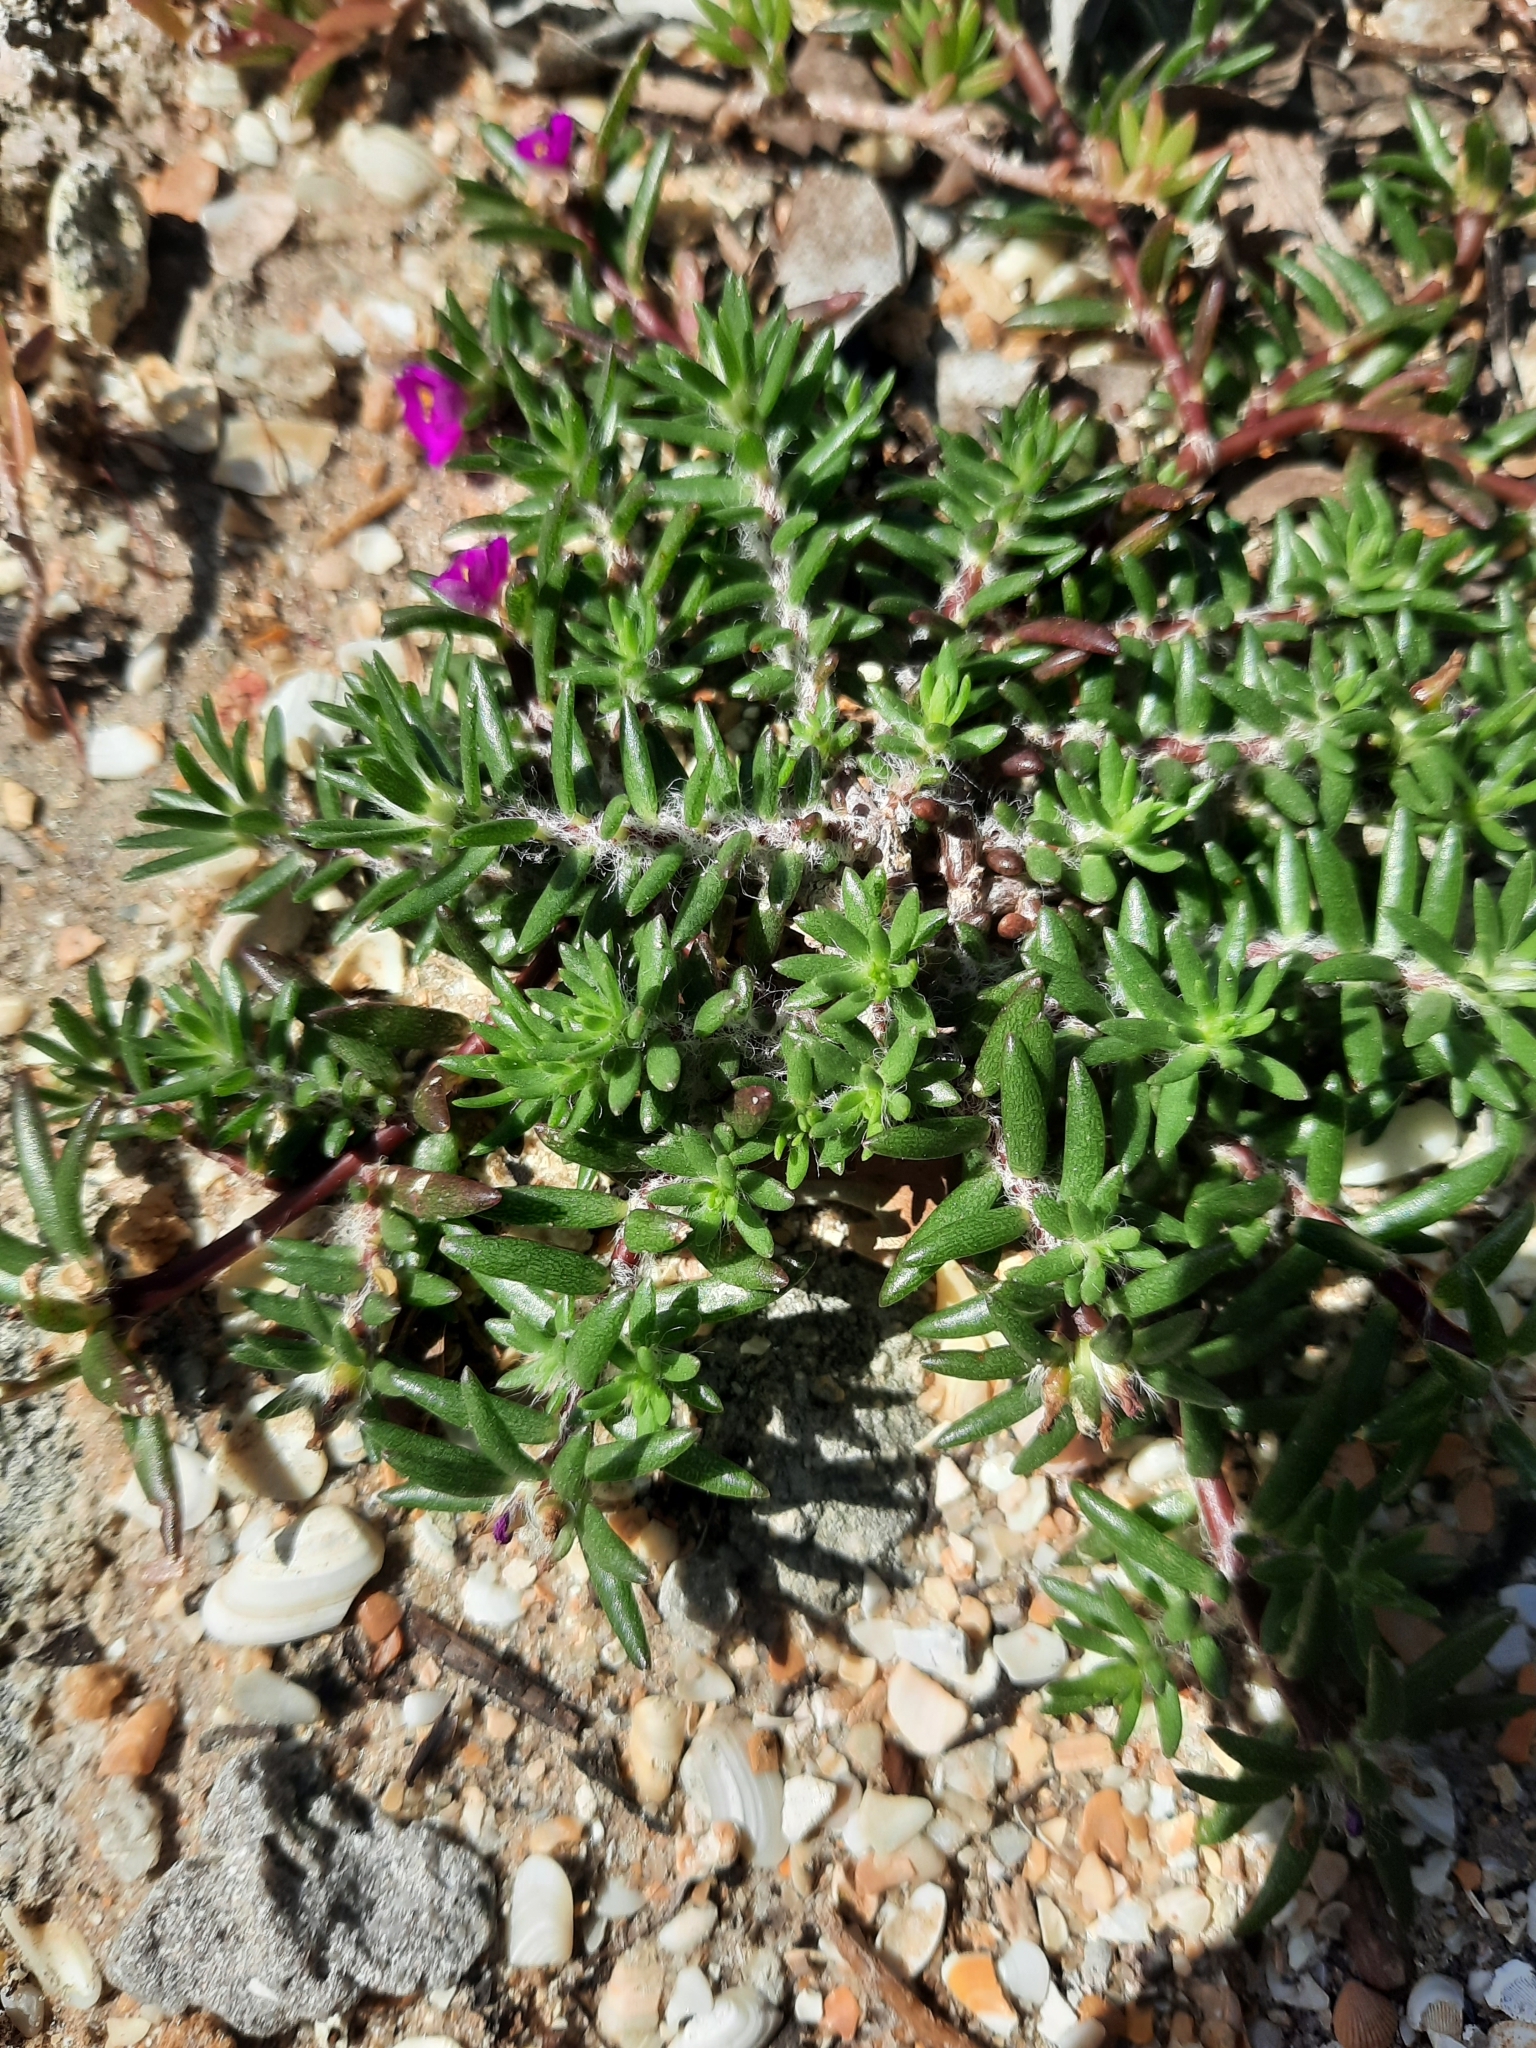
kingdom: Plantae
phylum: Tracheophyta
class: Magnoliopsida
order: Caryophyllales
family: Portulacaceae
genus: Portulaca
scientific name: Portulaca pilosa
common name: Kiss me quick
